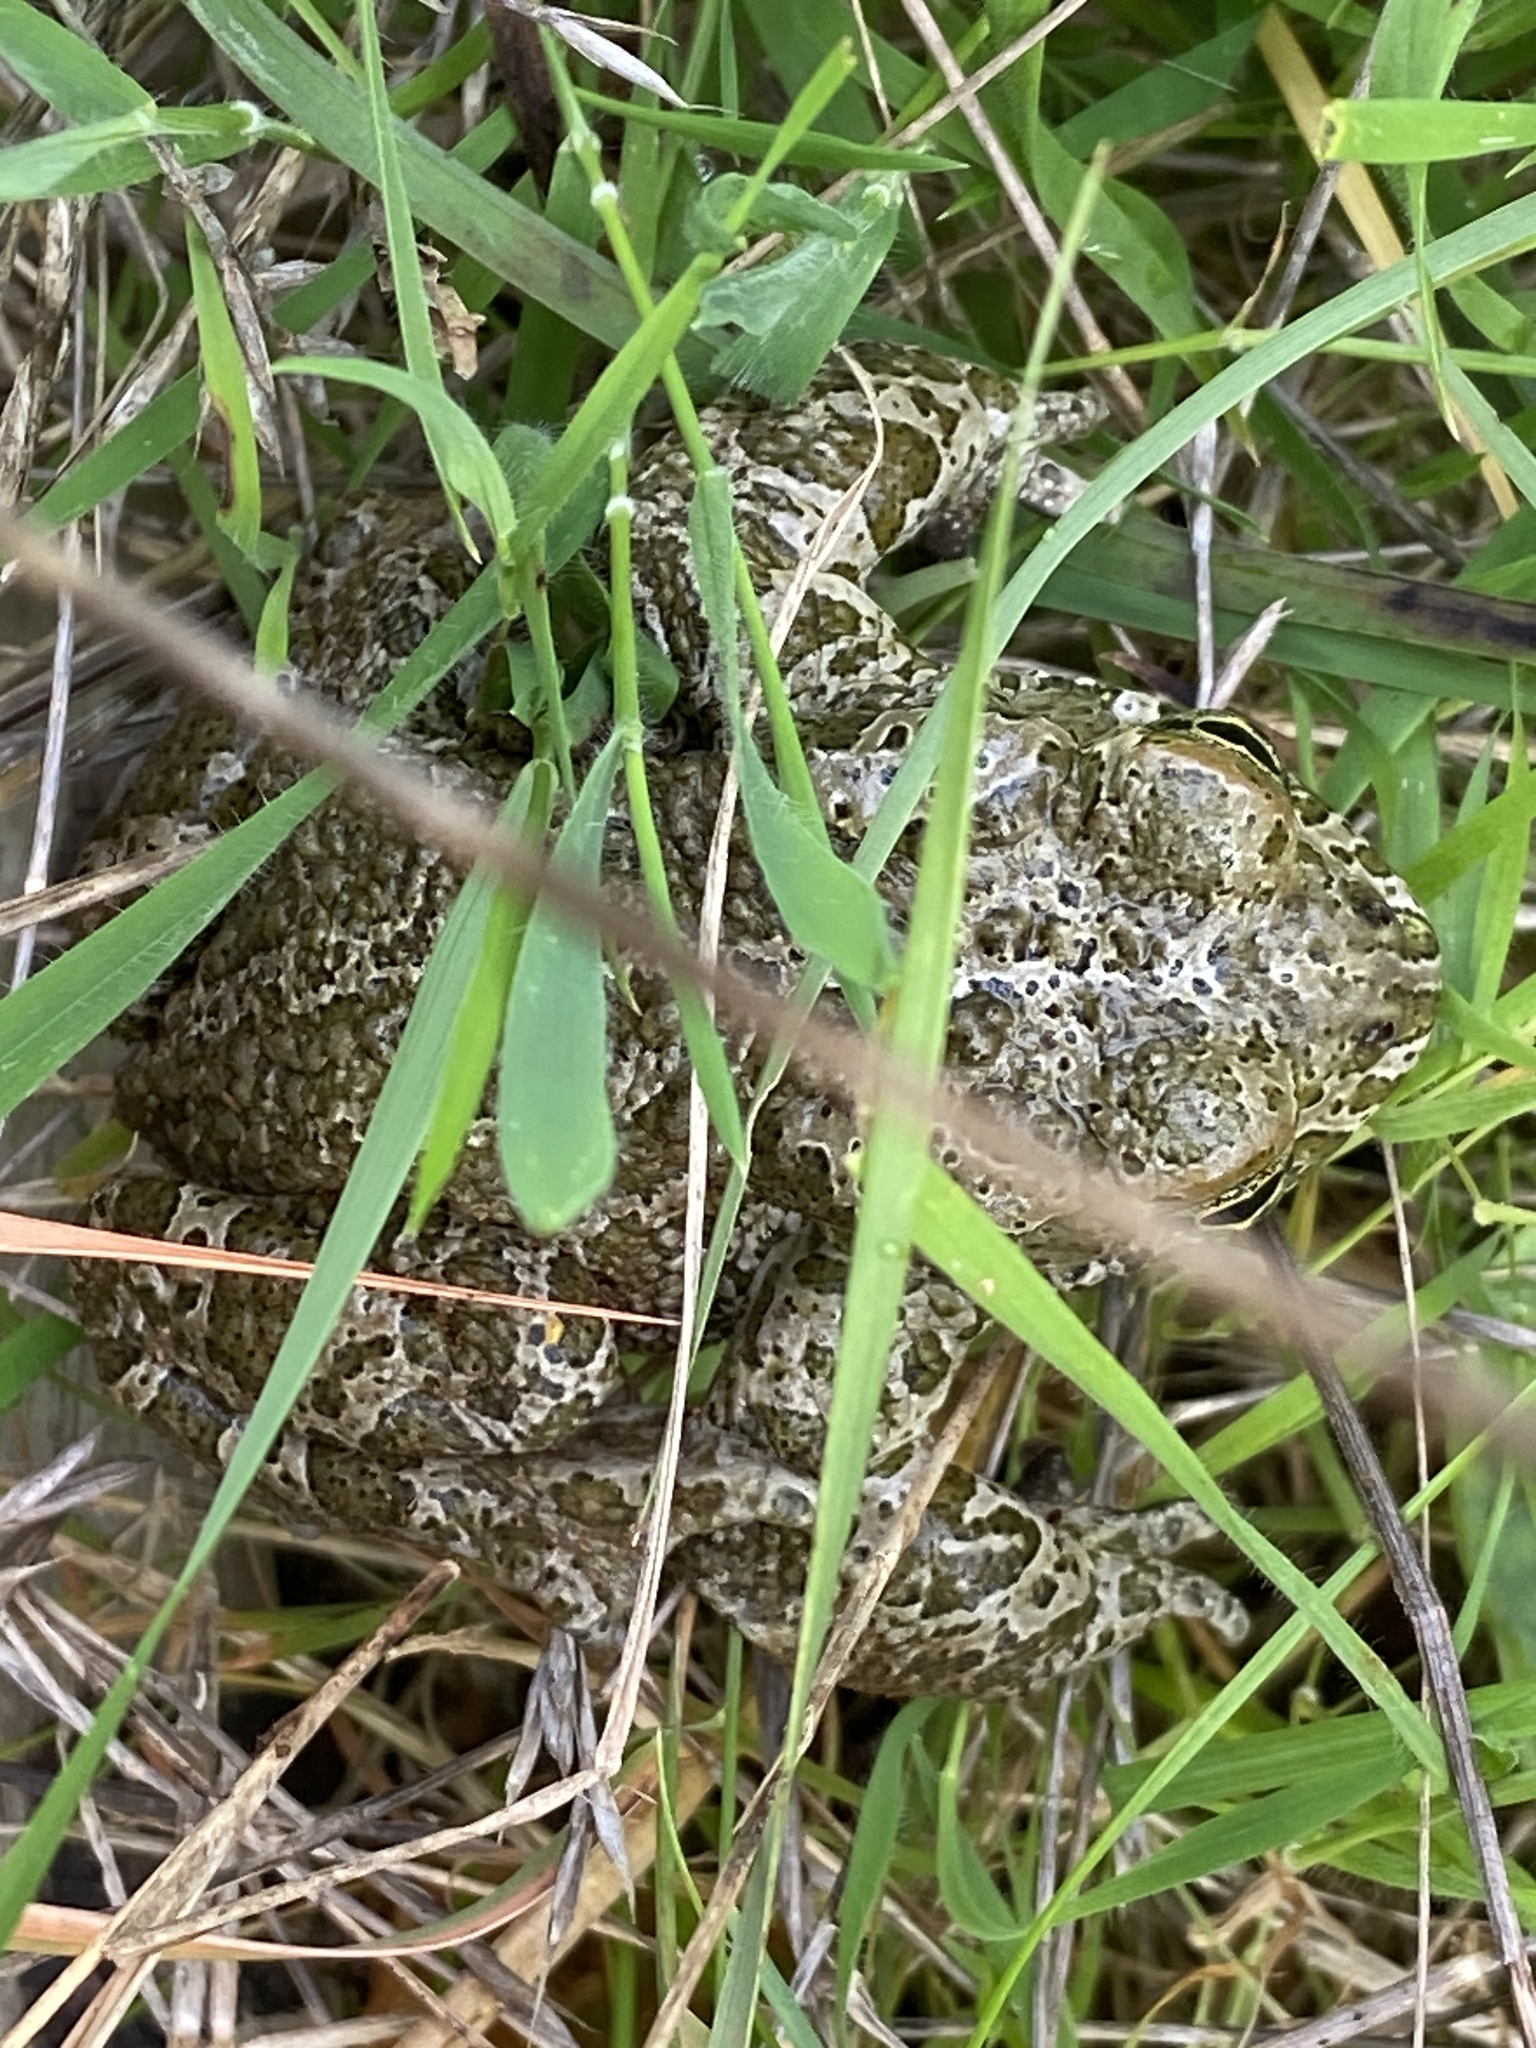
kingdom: Animalia
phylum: Chordata
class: Amphibia
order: Anura
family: Bufonidae
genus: Bufotes
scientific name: Bufotes viridis
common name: European green toad
